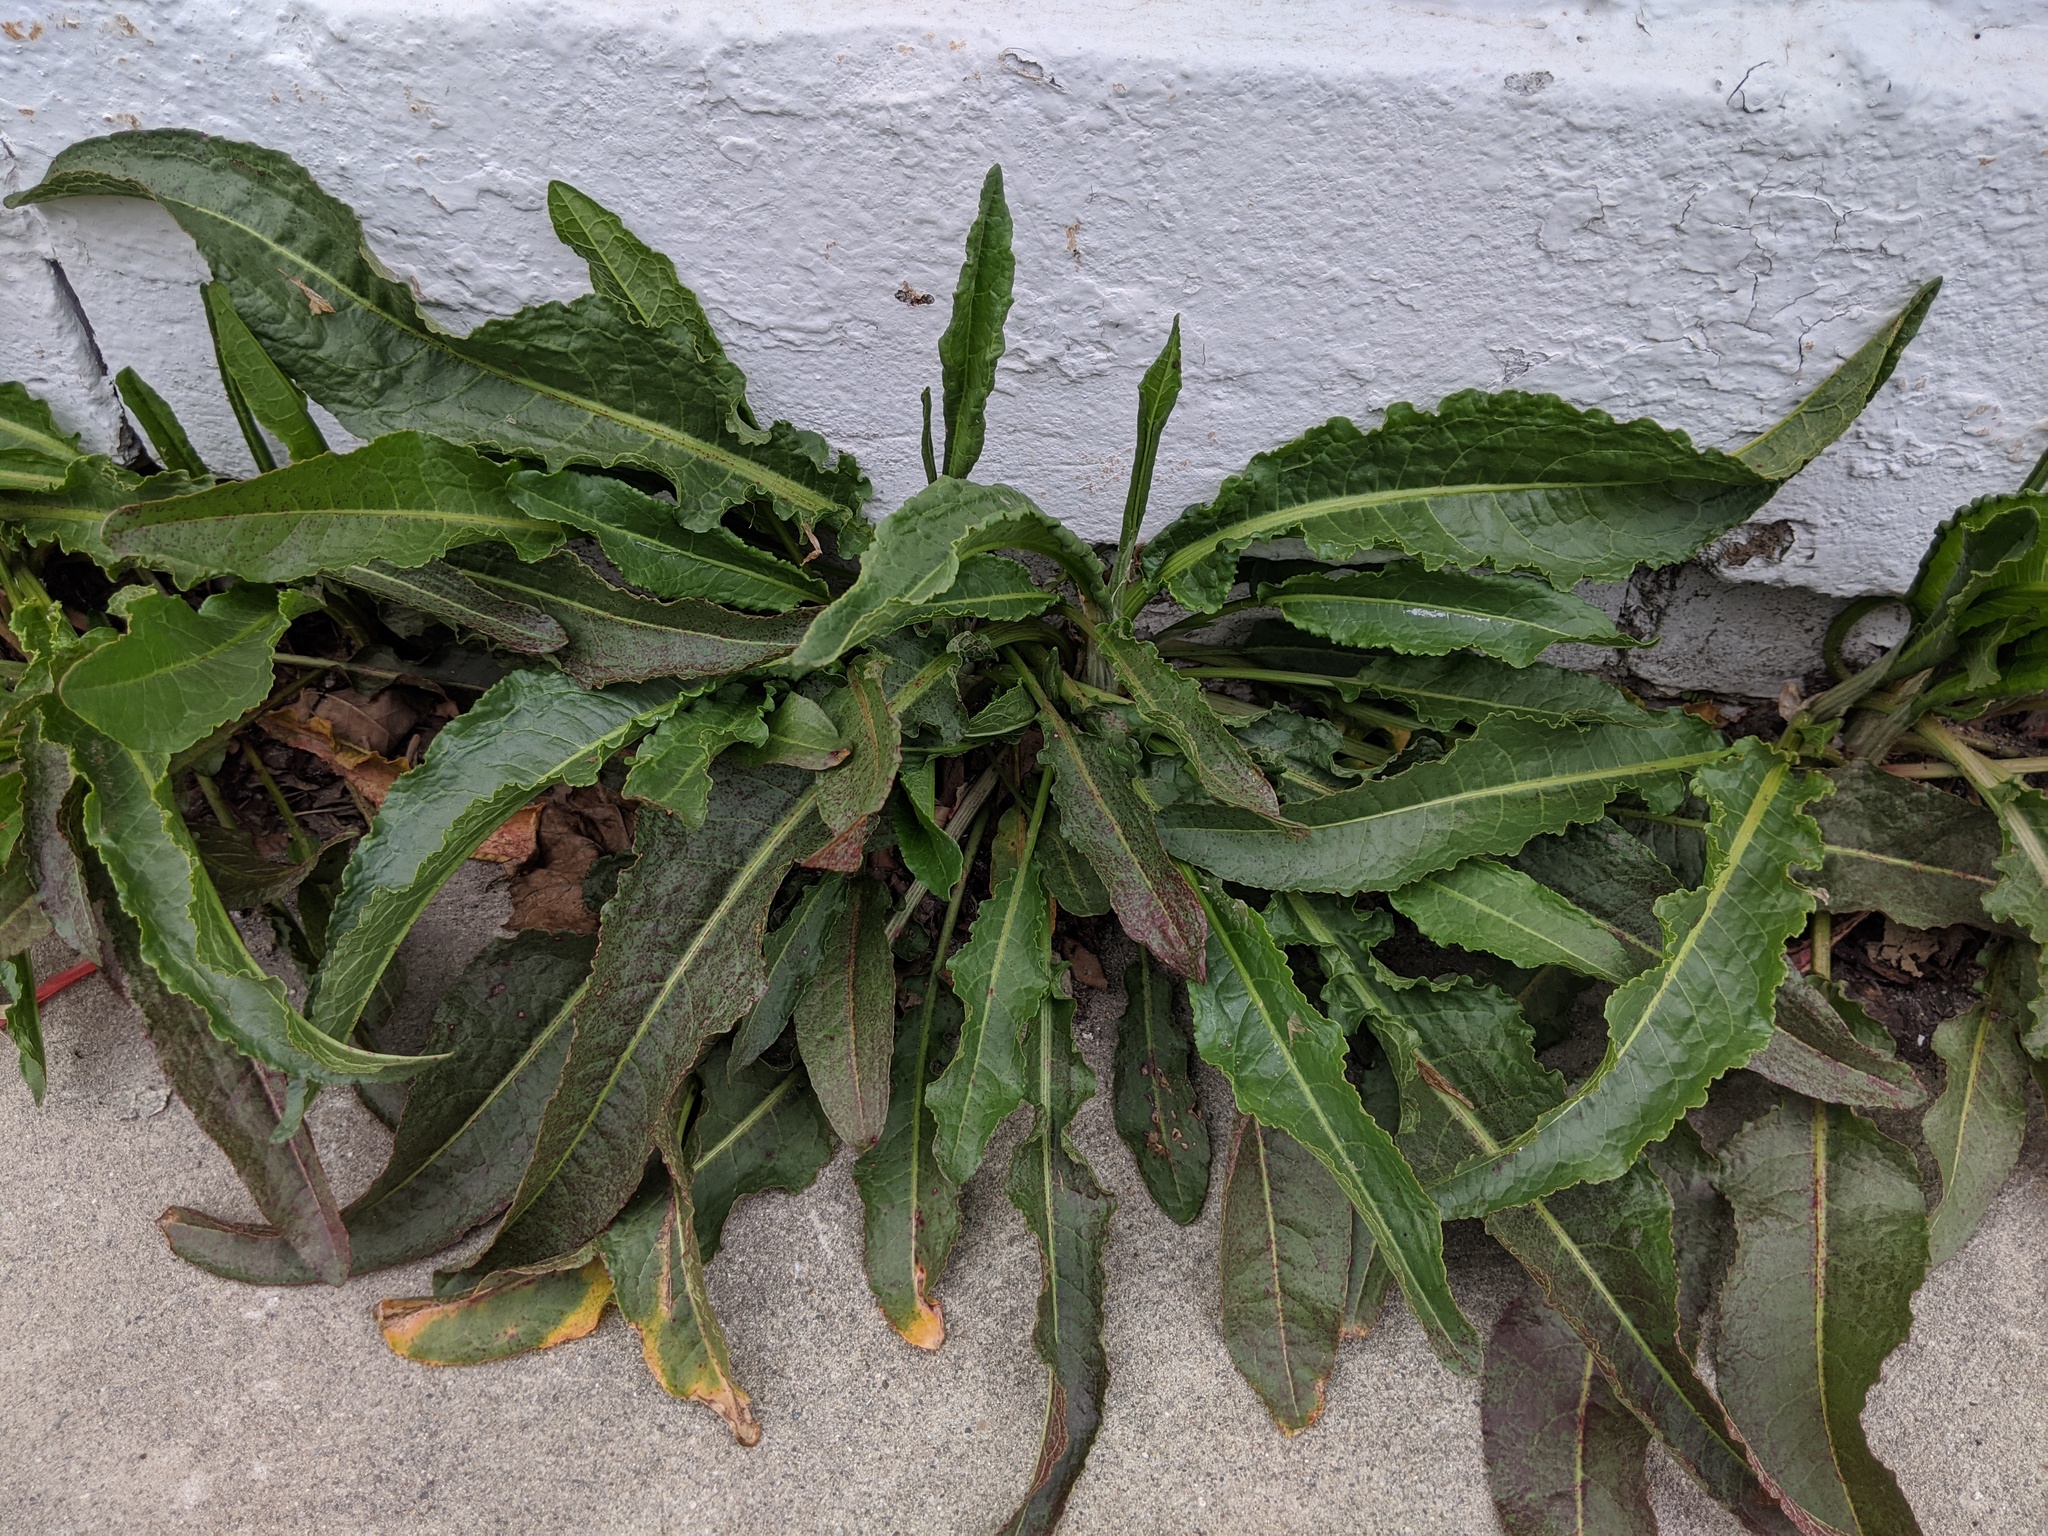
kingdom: Plantae
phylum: Tracheophyta
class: Magnoliopsida
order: Caryophyllales
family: Polygonaceae
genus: Rumex
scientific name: Rumex crispus
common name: Curled dock
